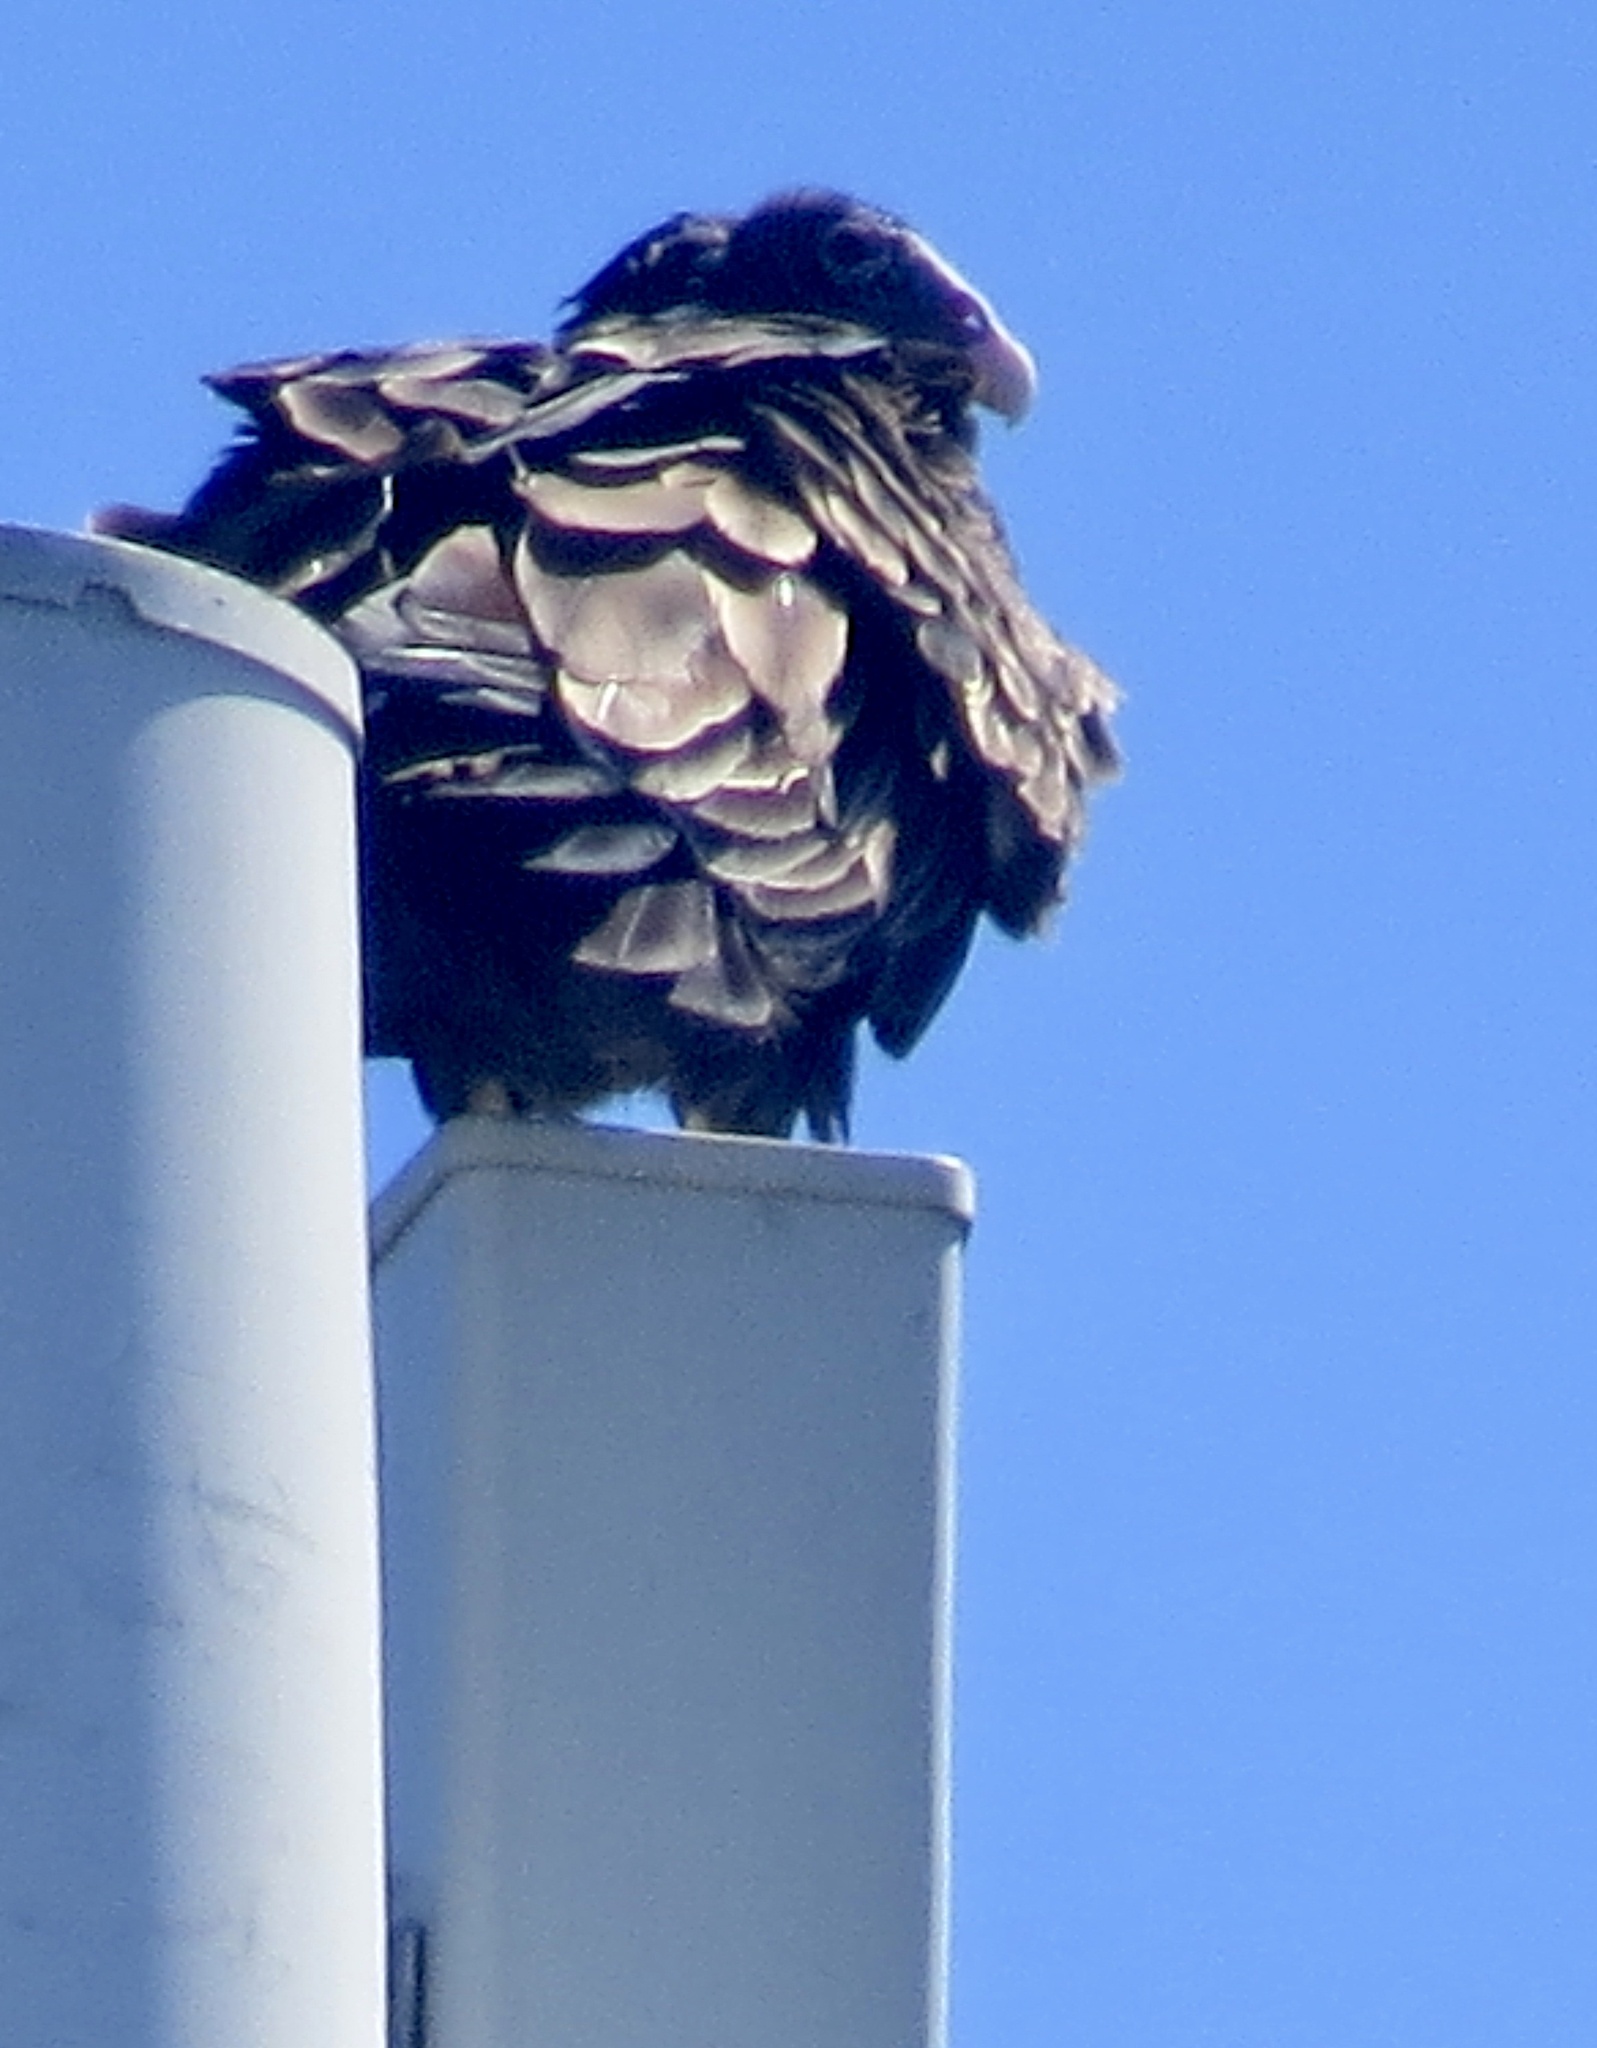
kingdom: Animalia
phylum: Chordata
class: Aves
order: Accipitriformes
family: Cathartidae
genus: Cathartes
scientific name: Cathartes aura
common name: Turkey vulture
